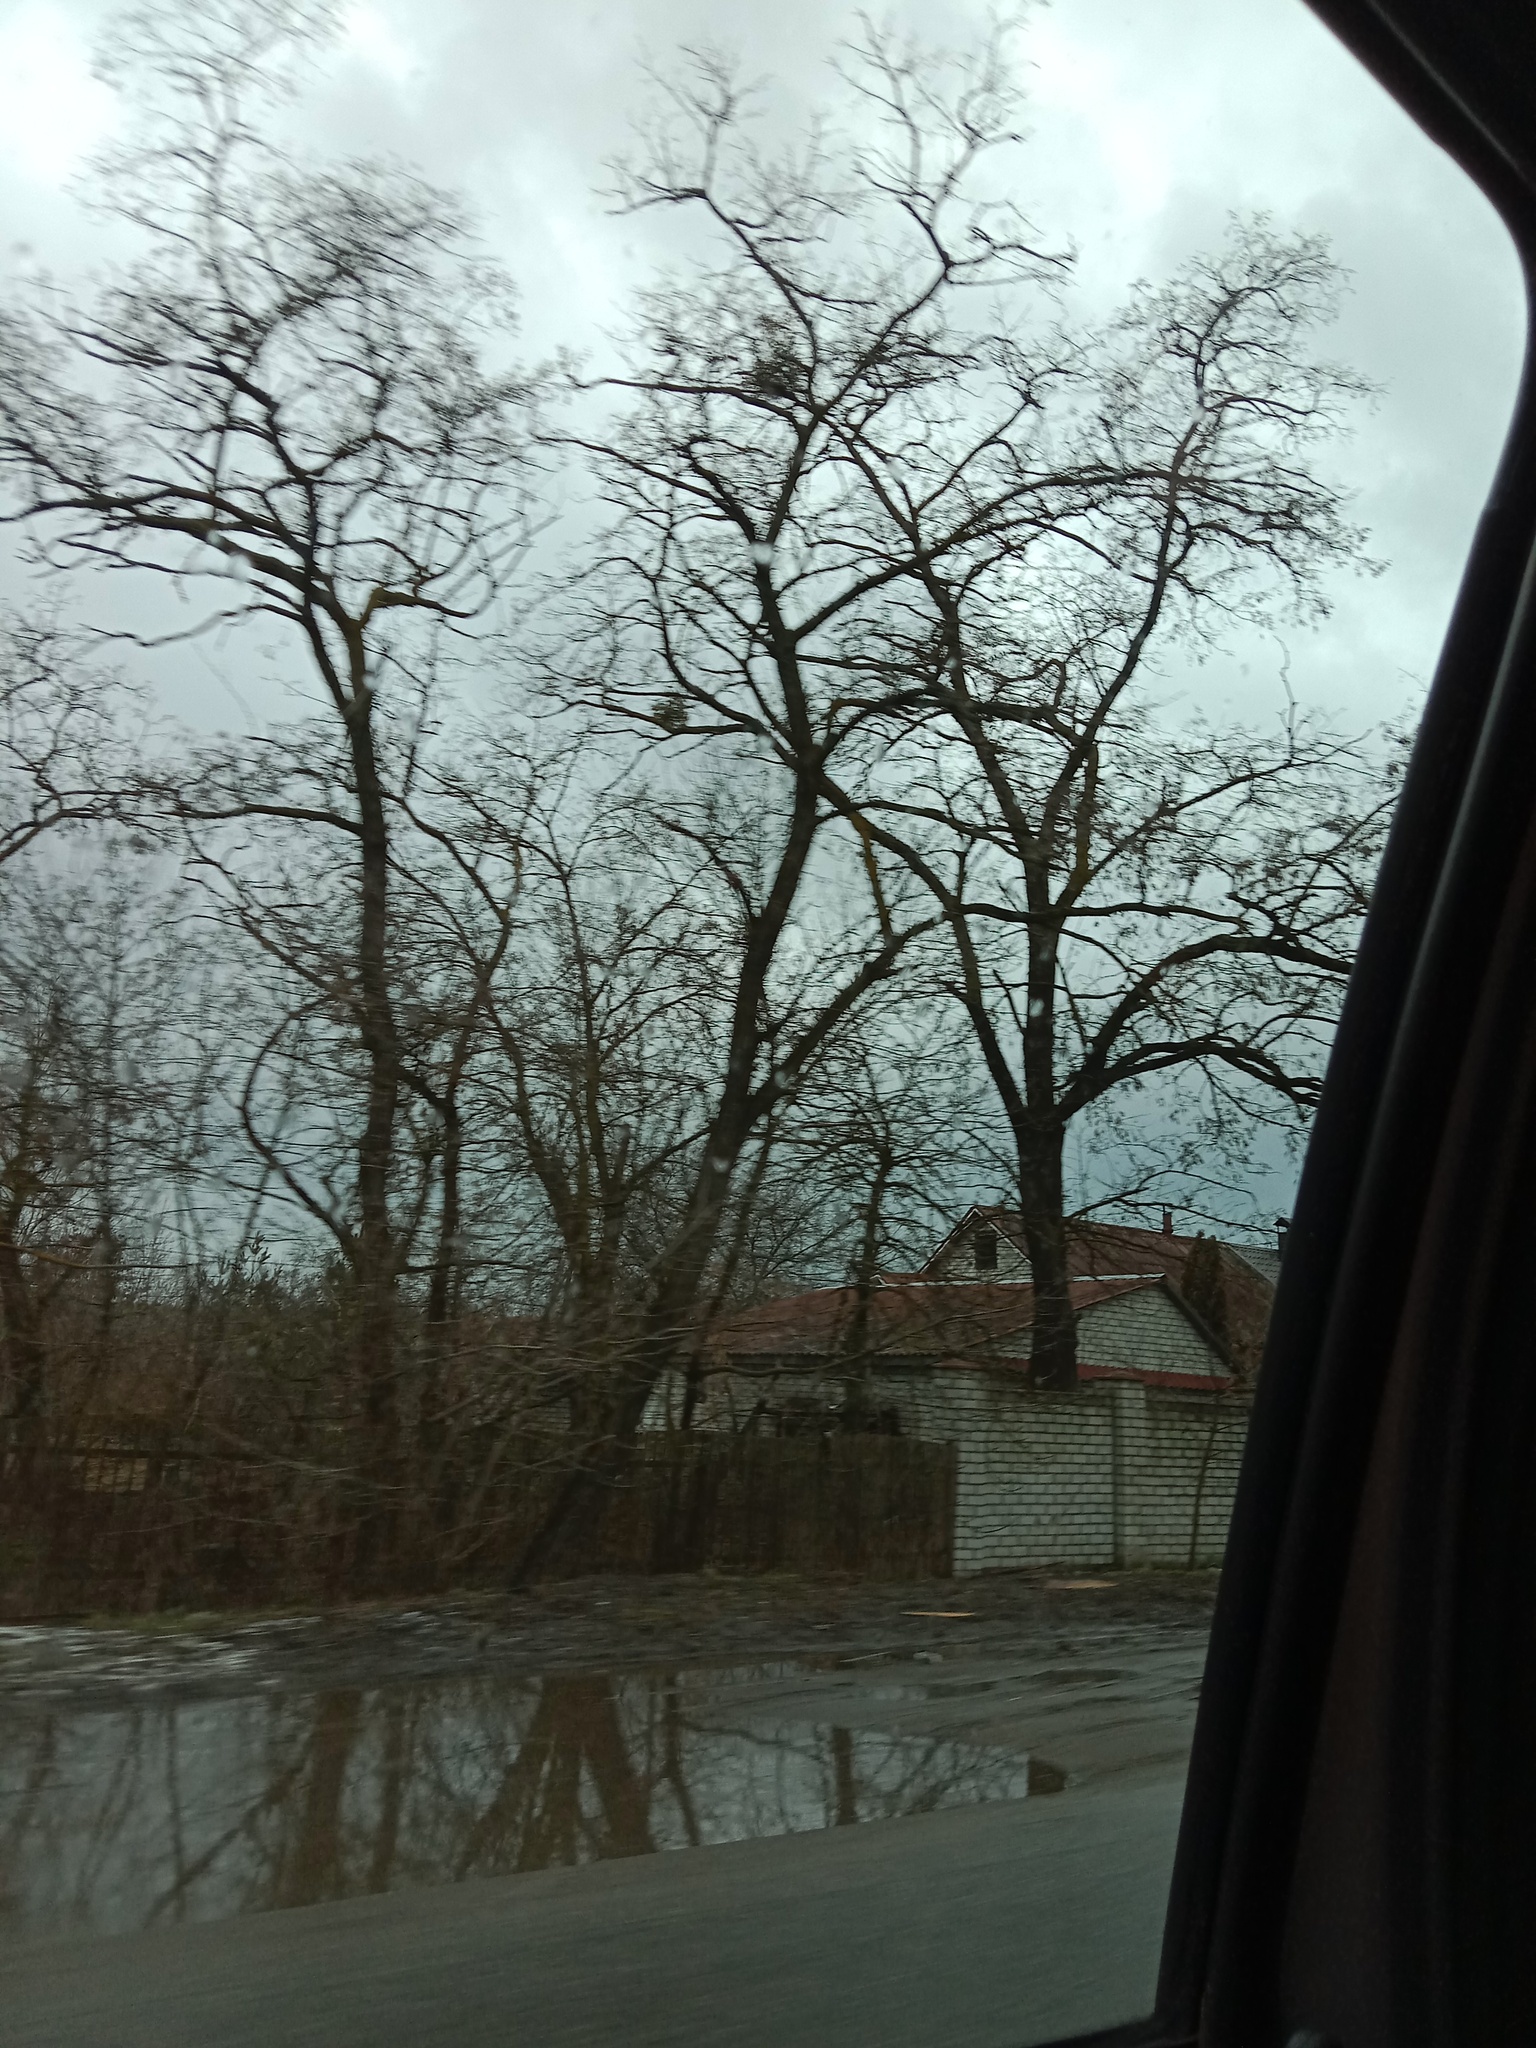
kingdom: Plantae
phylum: Tracheophyta
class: Magnoliopsida
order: Santalales
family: Viscaceae
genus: Viscum
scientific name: Viscum album
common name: Mistletoe
